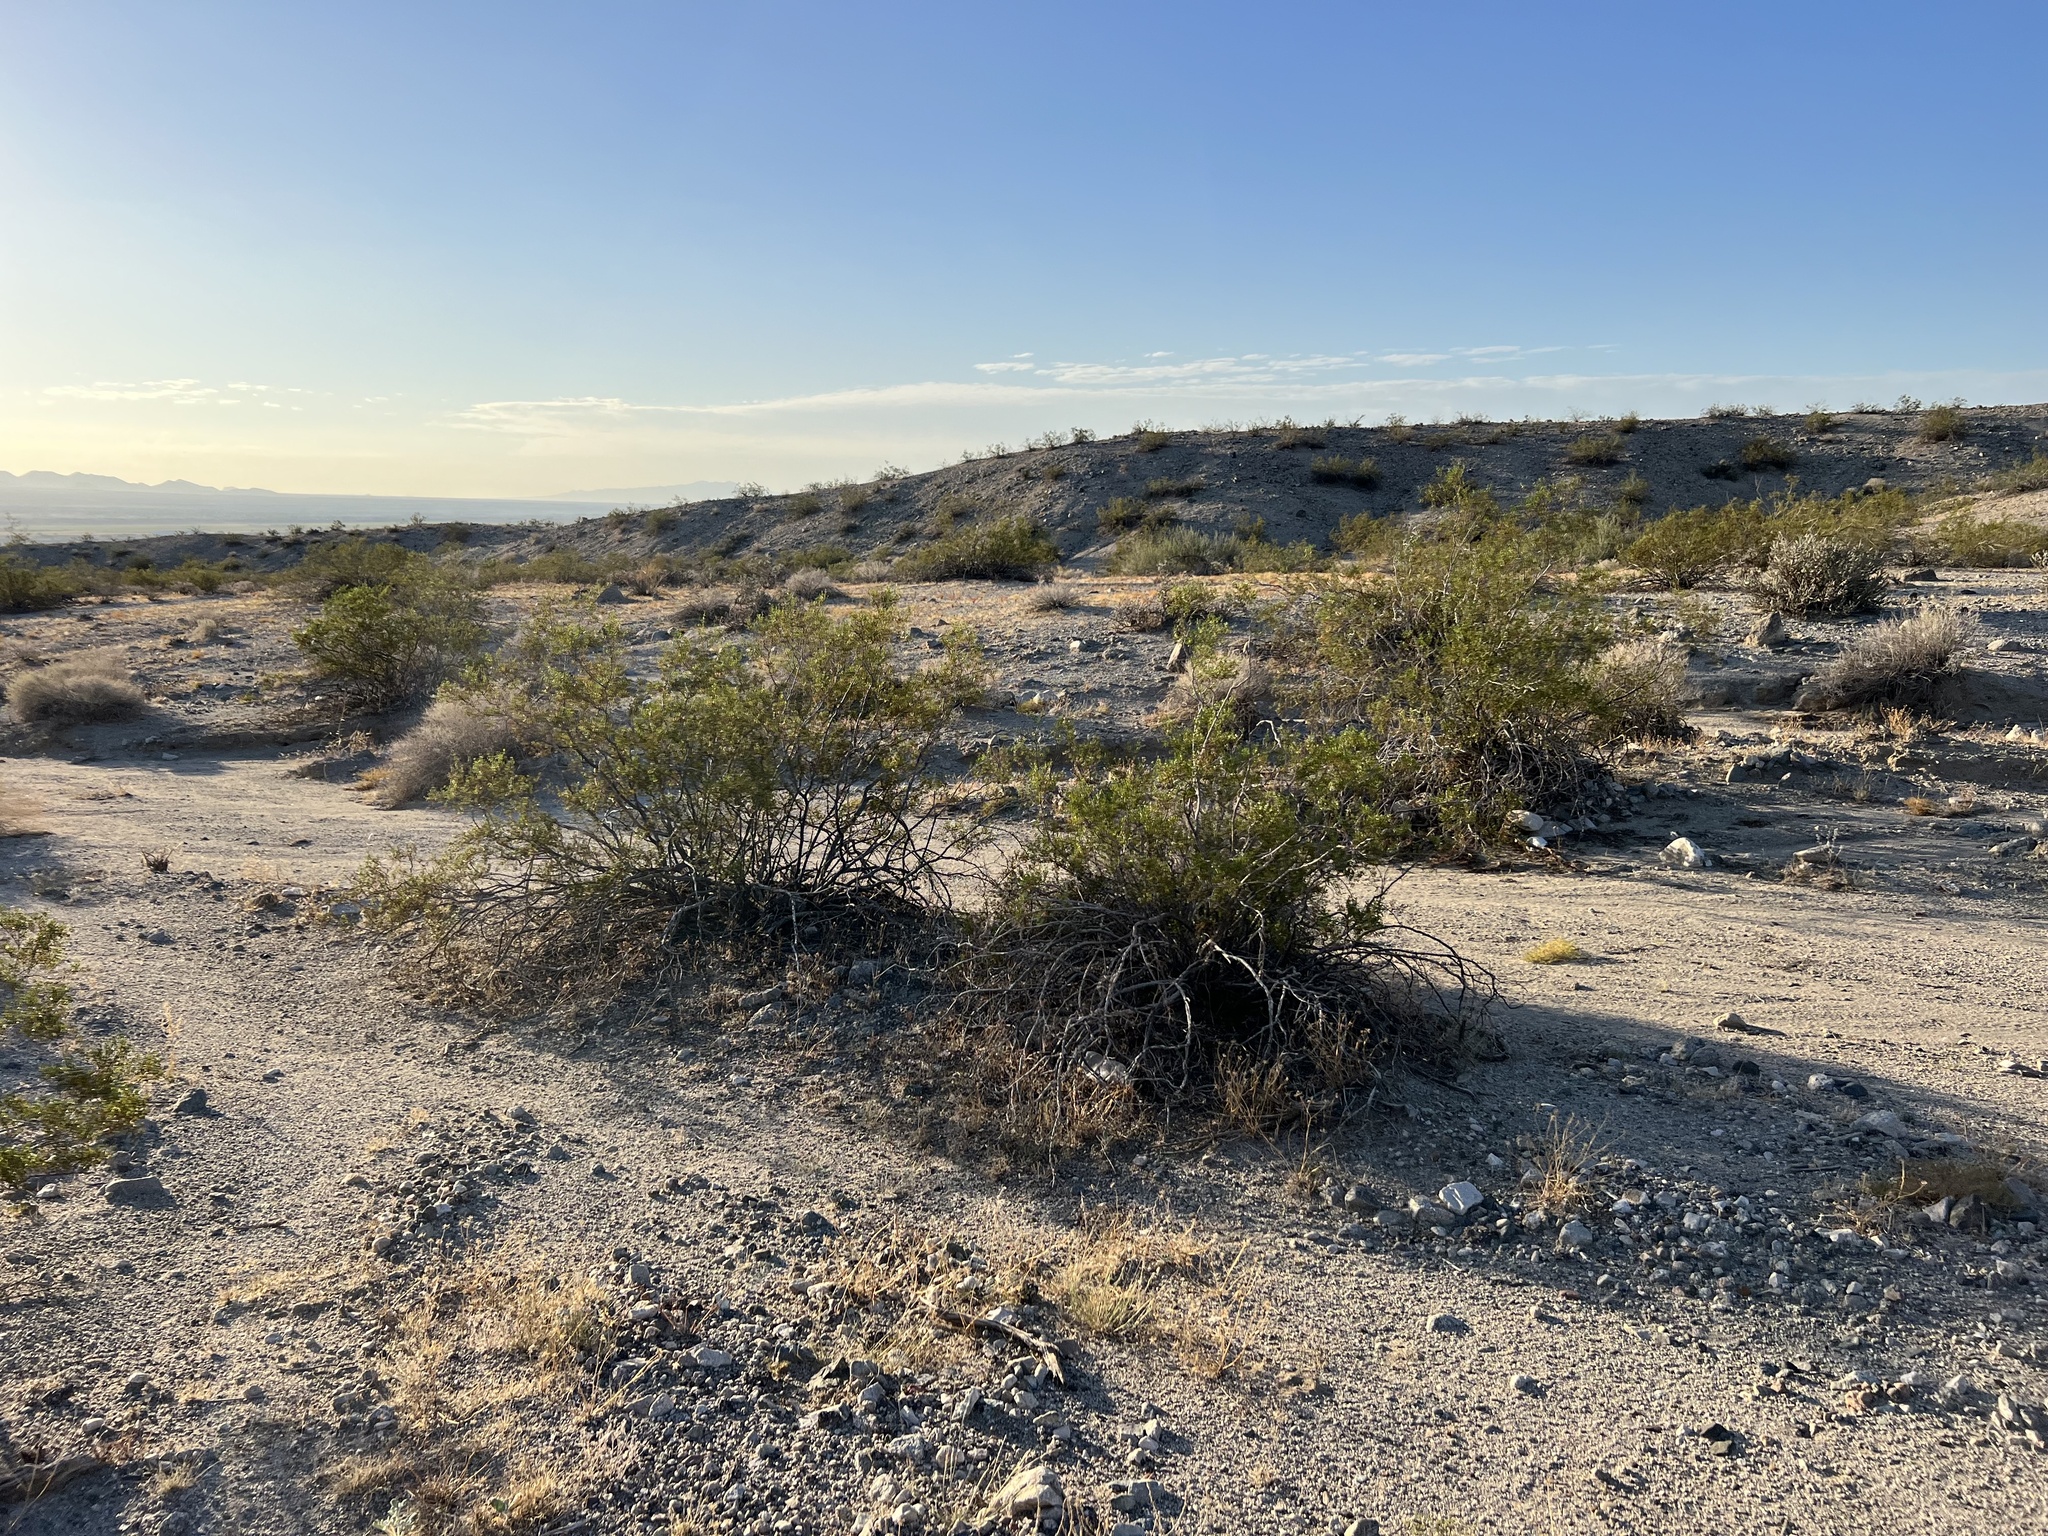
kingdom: Plantae
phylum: Tracheophyta
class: Magnoliopsida
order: Zygophyllales
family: Zygophyllaceae
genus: Larrea
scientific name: Larrea tridentata
